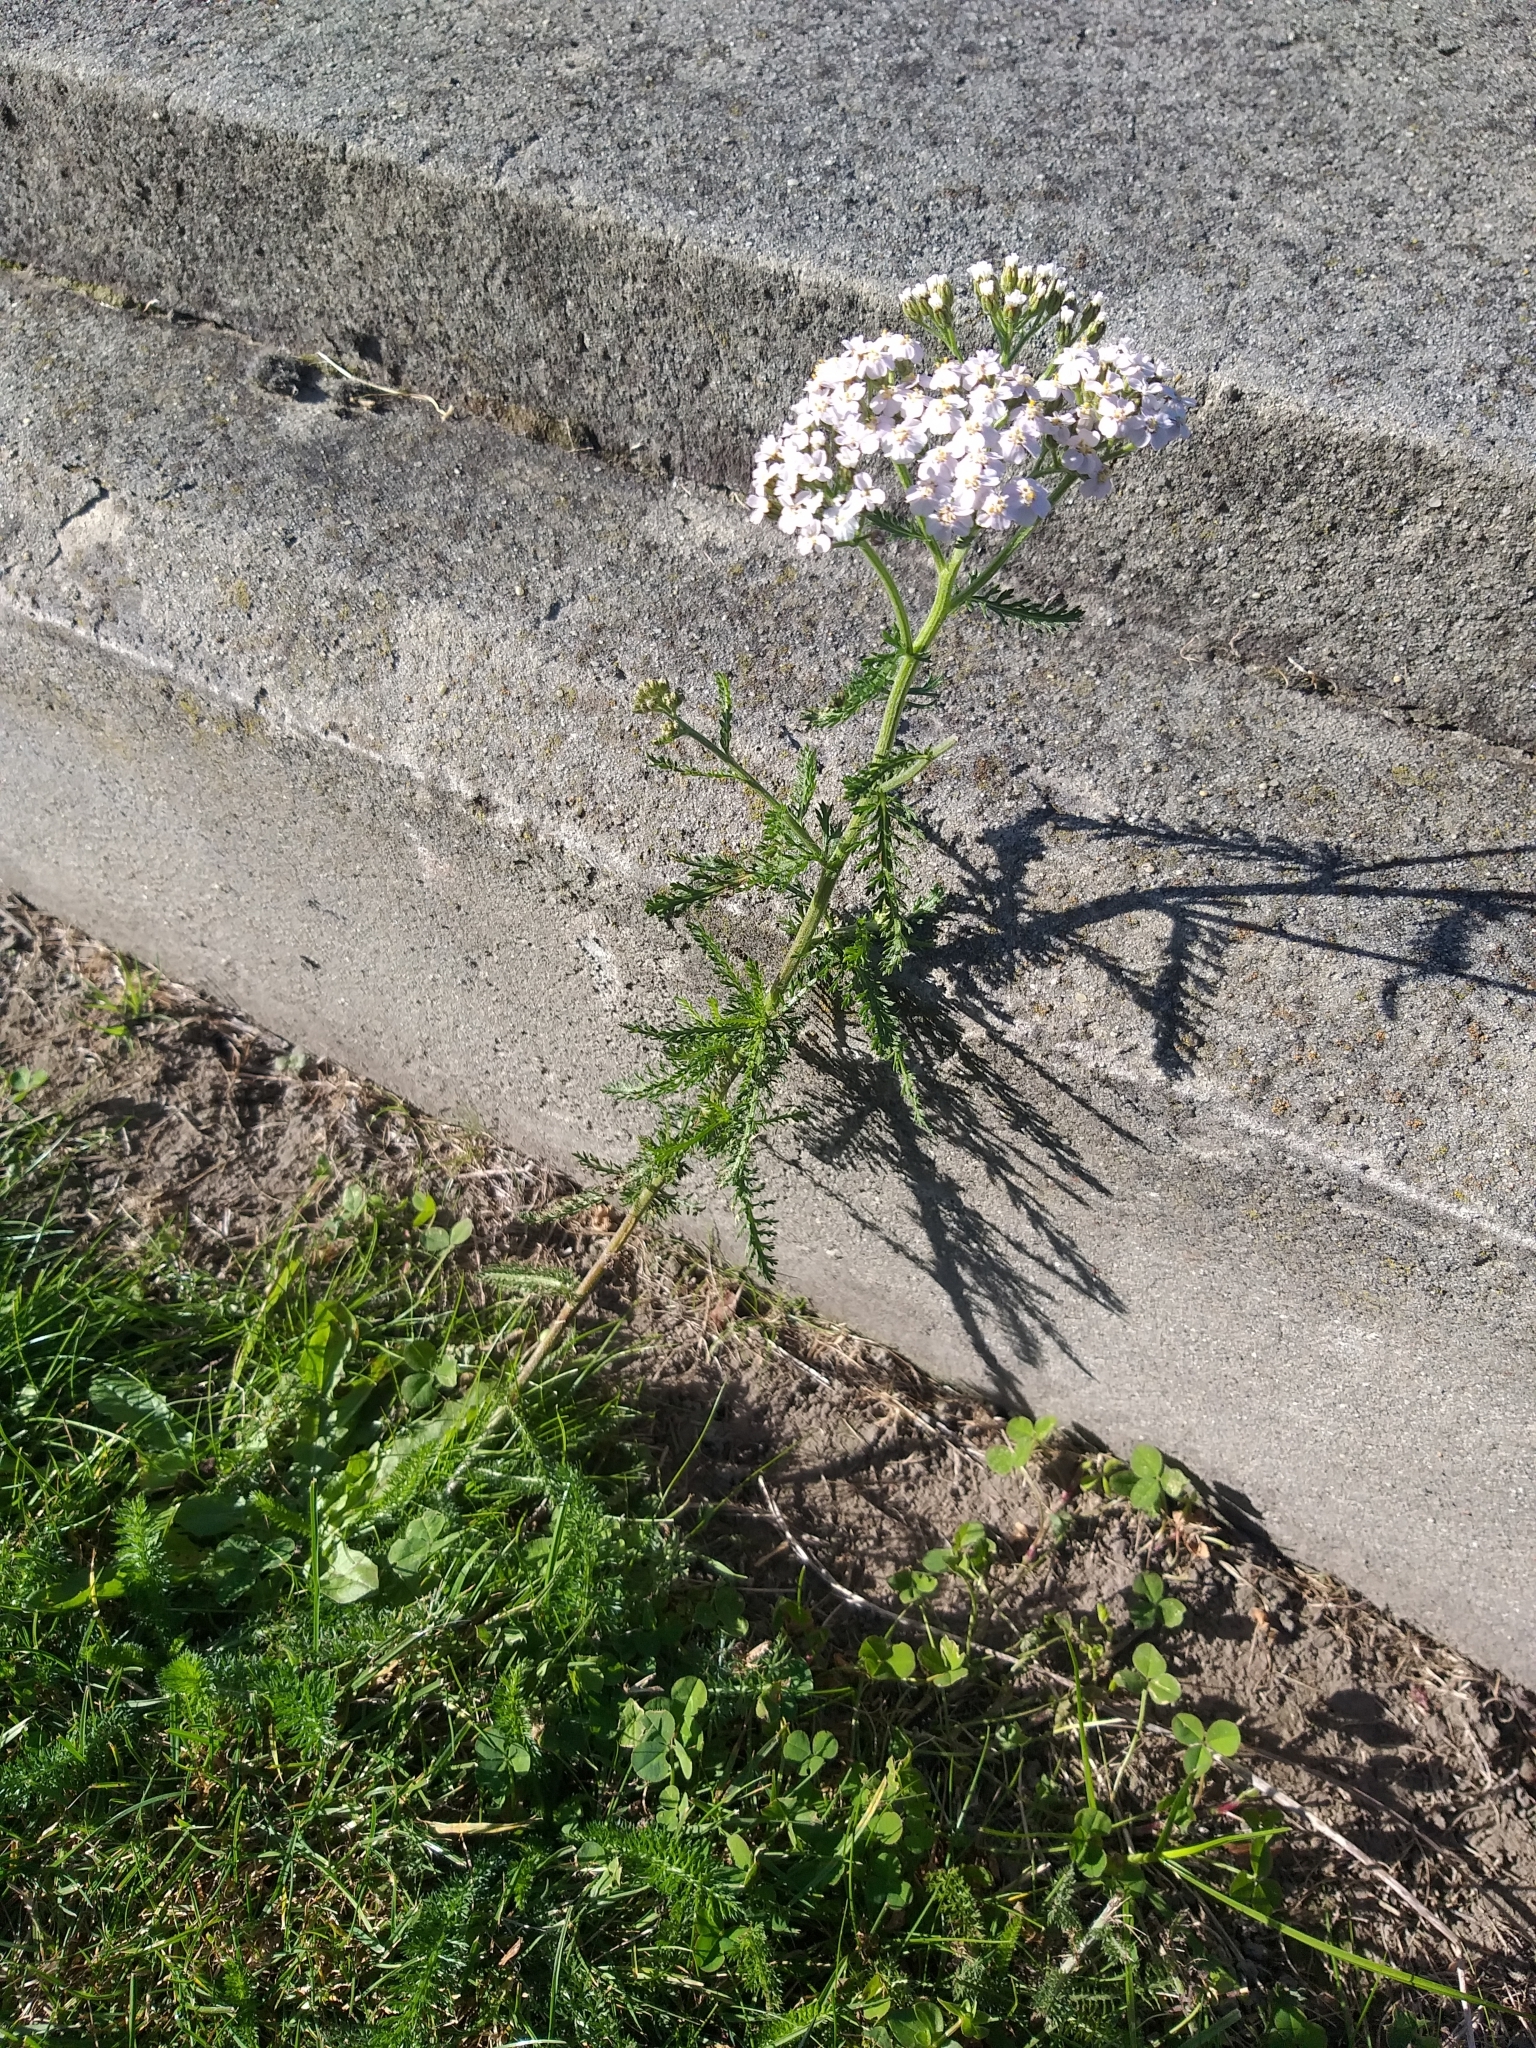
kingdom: Plantae
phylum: Tracheophyta
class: Magnoliopsida
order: Asterales
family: Asteraceae
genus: Achillea
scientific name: Achillea millefolium
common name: Yarrow
